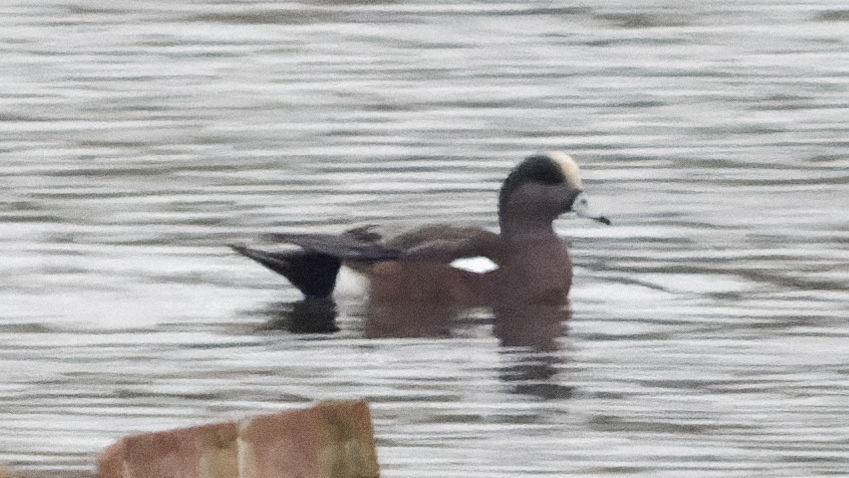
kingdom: Animalia
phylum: Chordata
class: Aves
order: Anseriformes
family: Anatidae
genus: Mareca
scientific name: Mareca americana
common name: American wigeon
